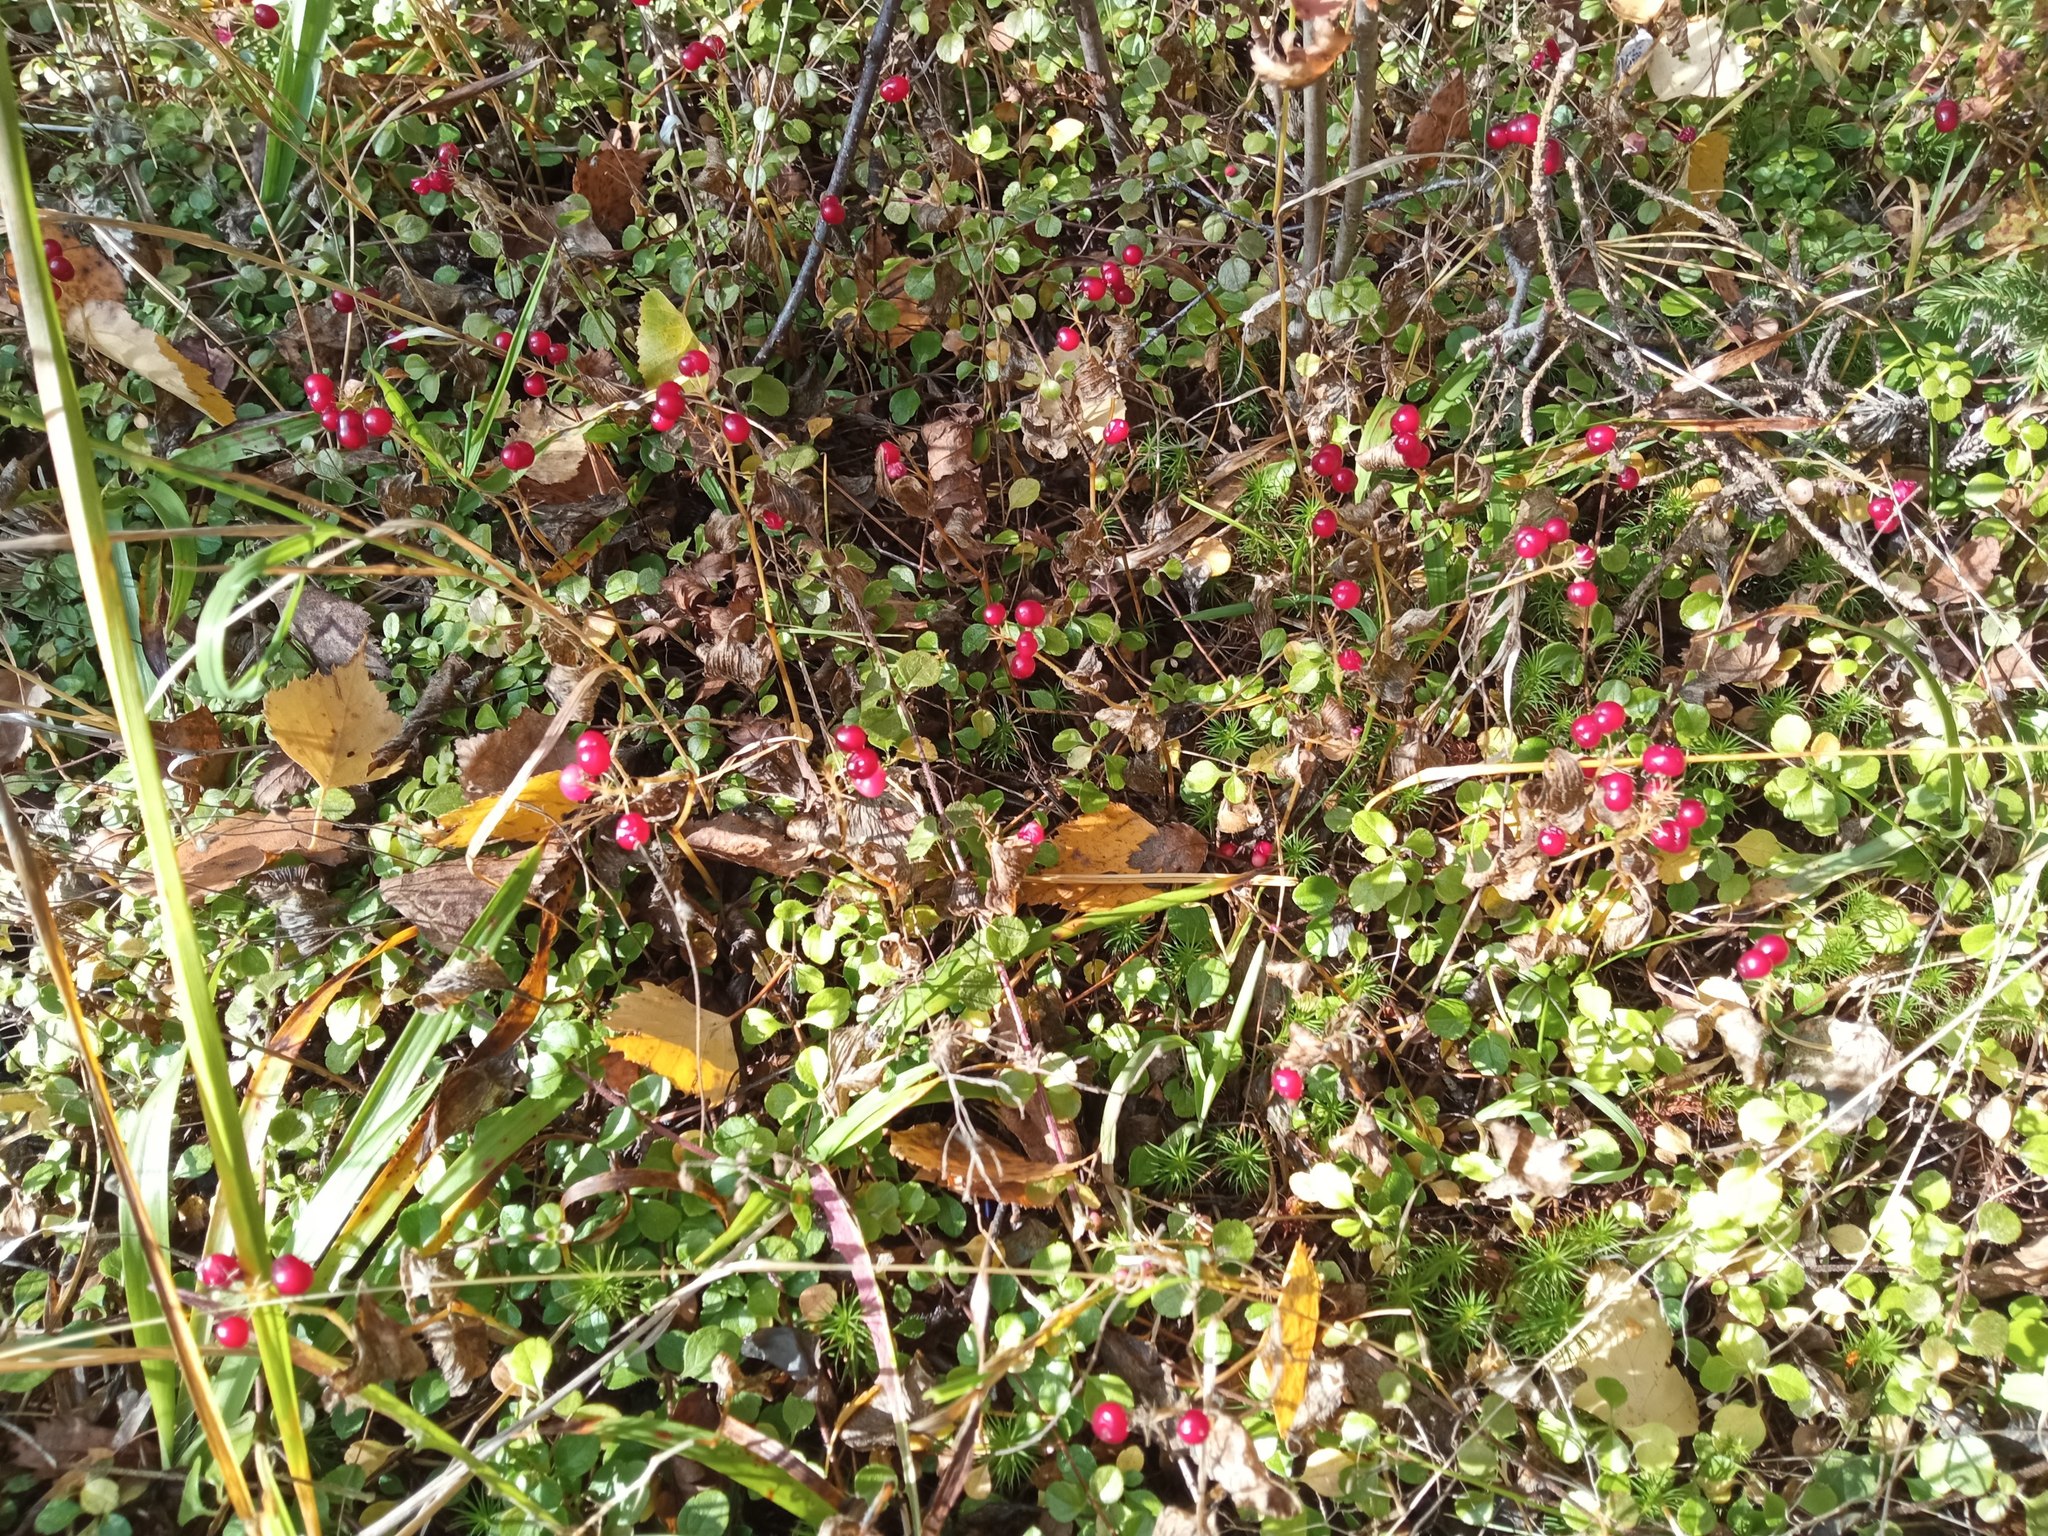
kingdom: Plantae
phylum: Tracheophyta
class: Liliopsida
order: Asparagales
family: Asparagaceae
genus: Maianthemum
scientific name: Maianthemum bifolium
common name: May lily
